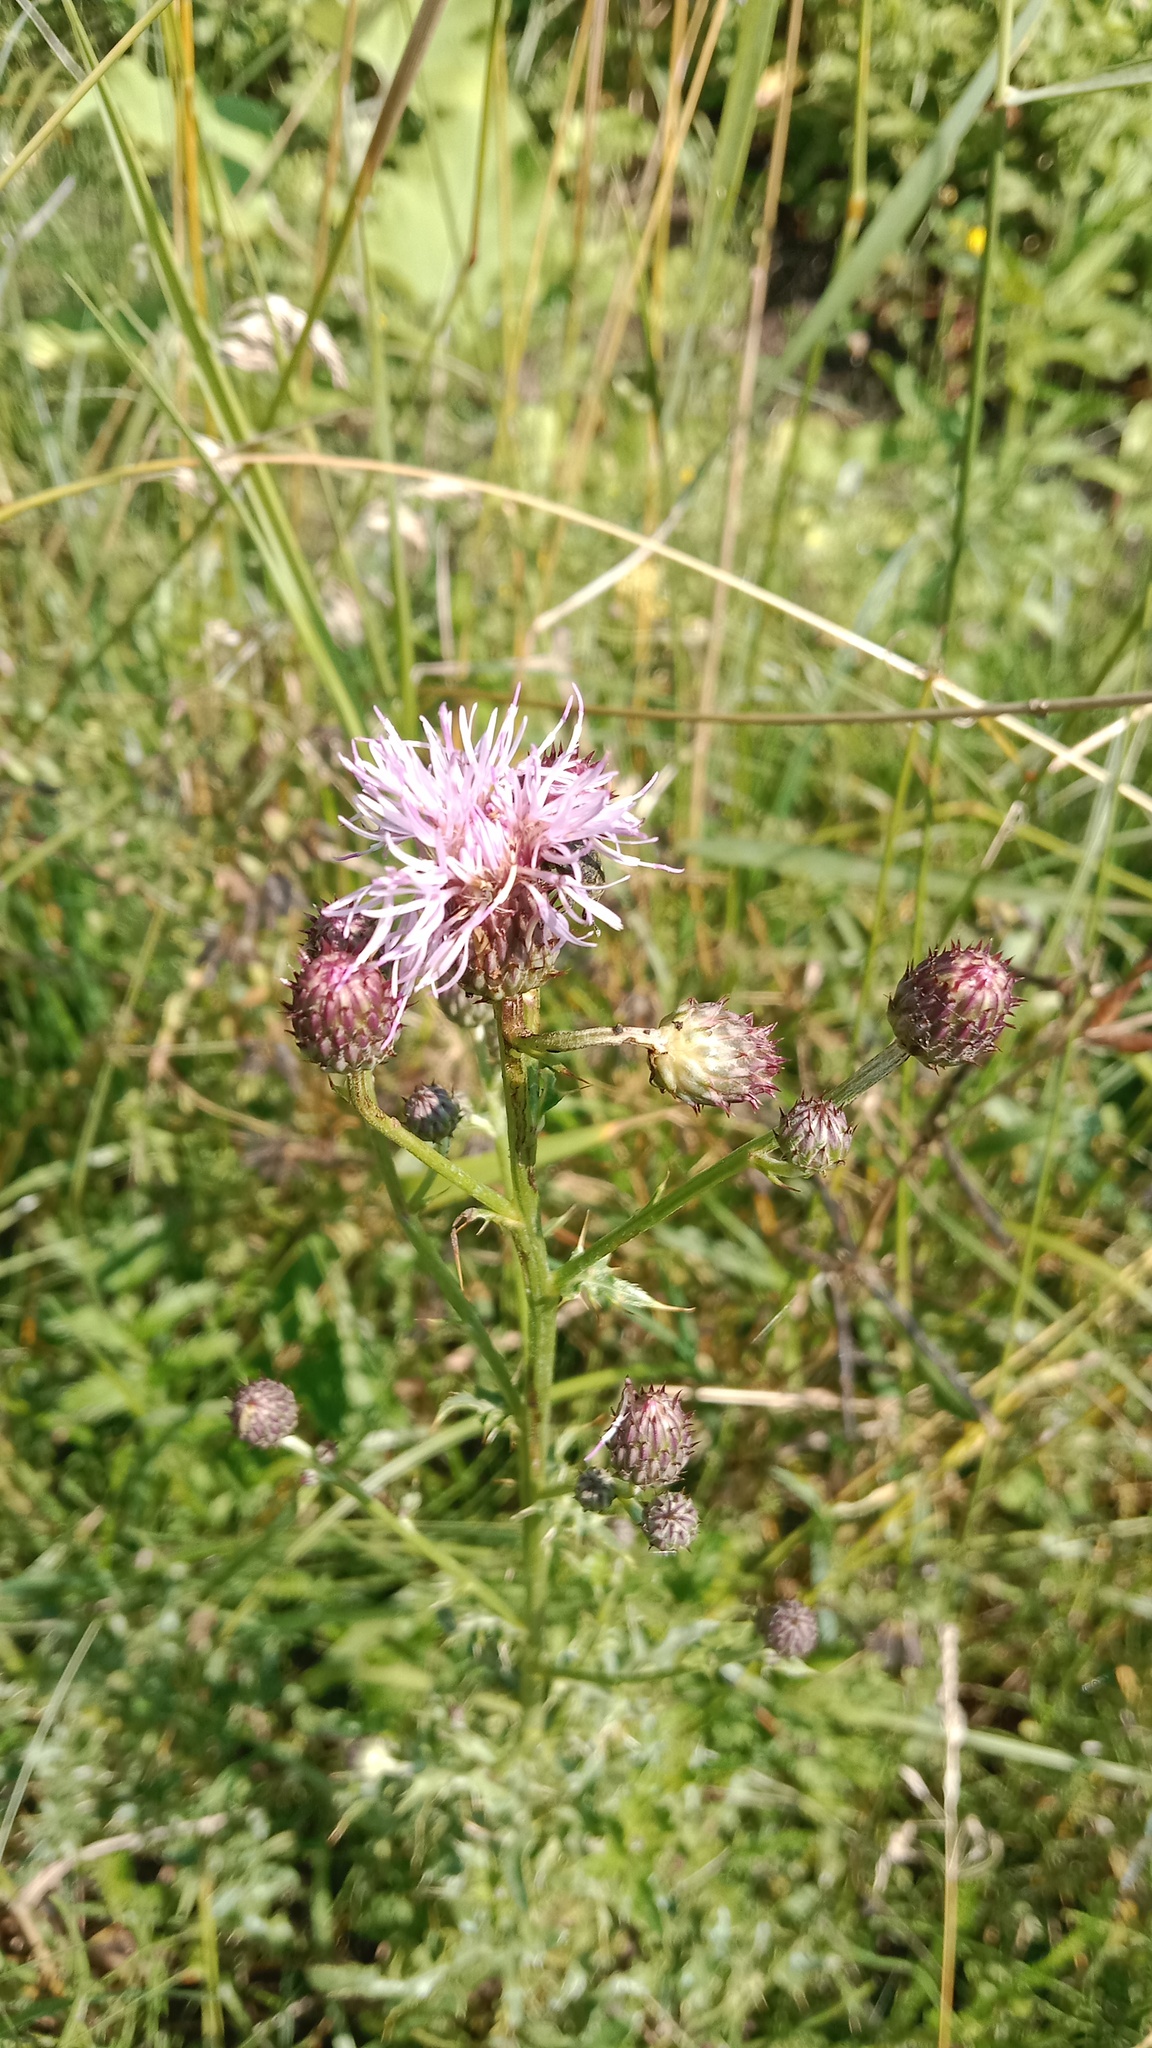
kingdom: Plantae
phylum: Tracheophyta
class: Magnoliopsida
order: Asterales
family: Asteraceae
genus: Cirsium
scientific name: Cirsium arvense
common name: Creeping thistle
